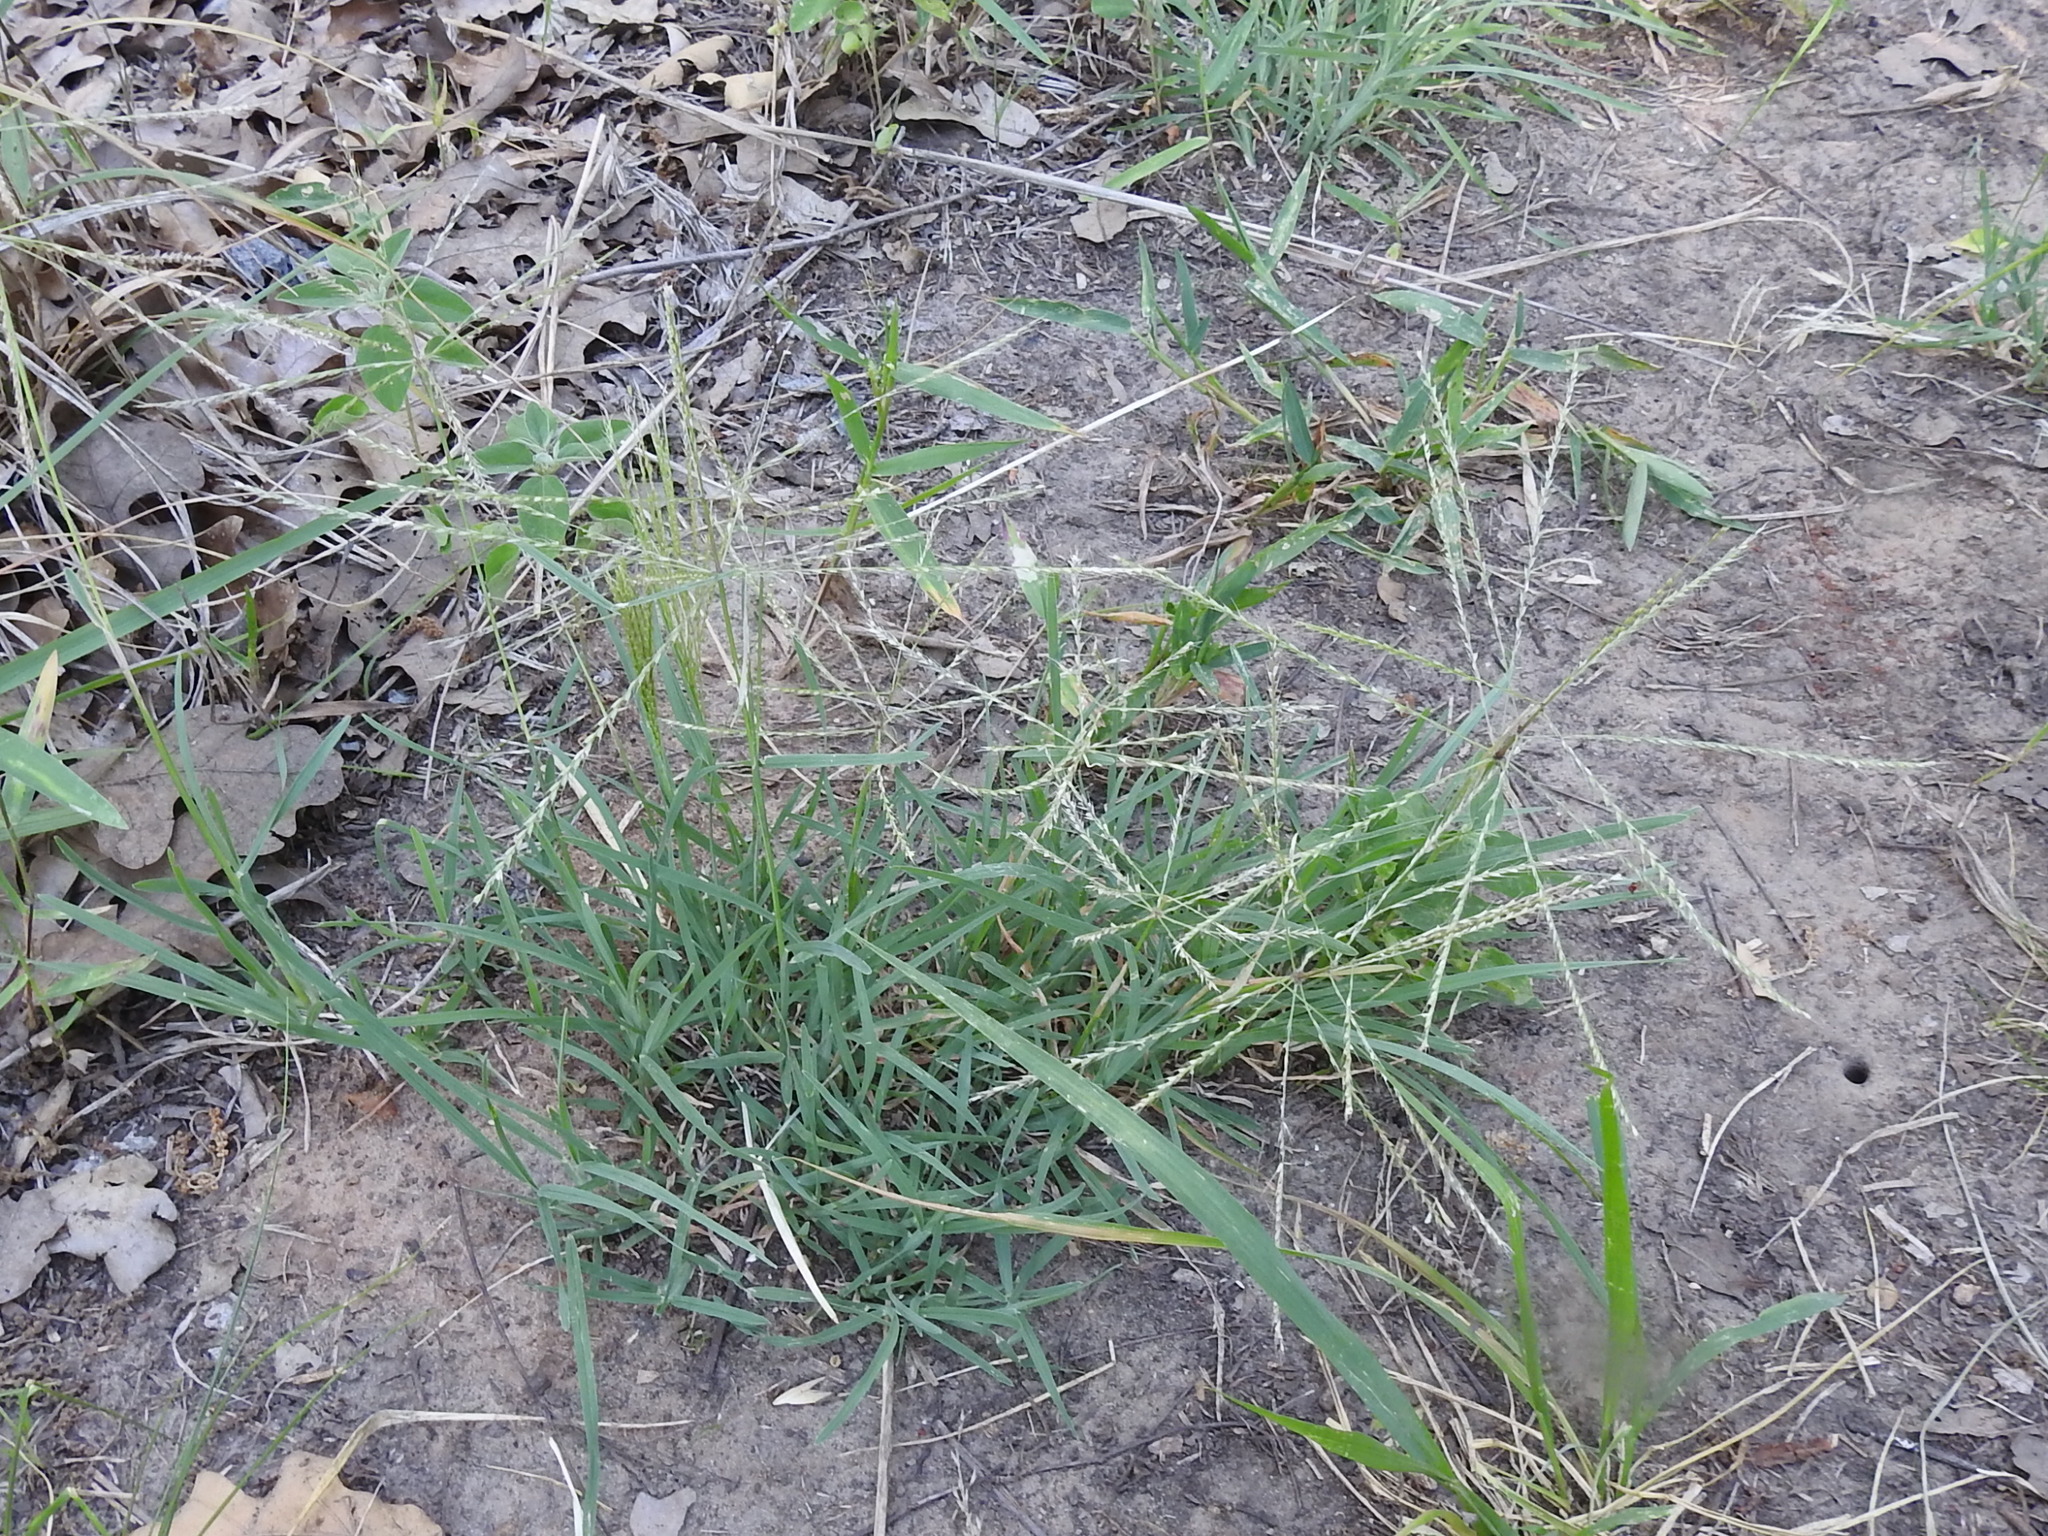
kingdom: Plantae
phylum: Tracheophyta
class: Liliopsida
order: Poales
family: Poaceae
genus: Chloris
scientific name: Chloris verticillata
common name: Tumble windmill grass
